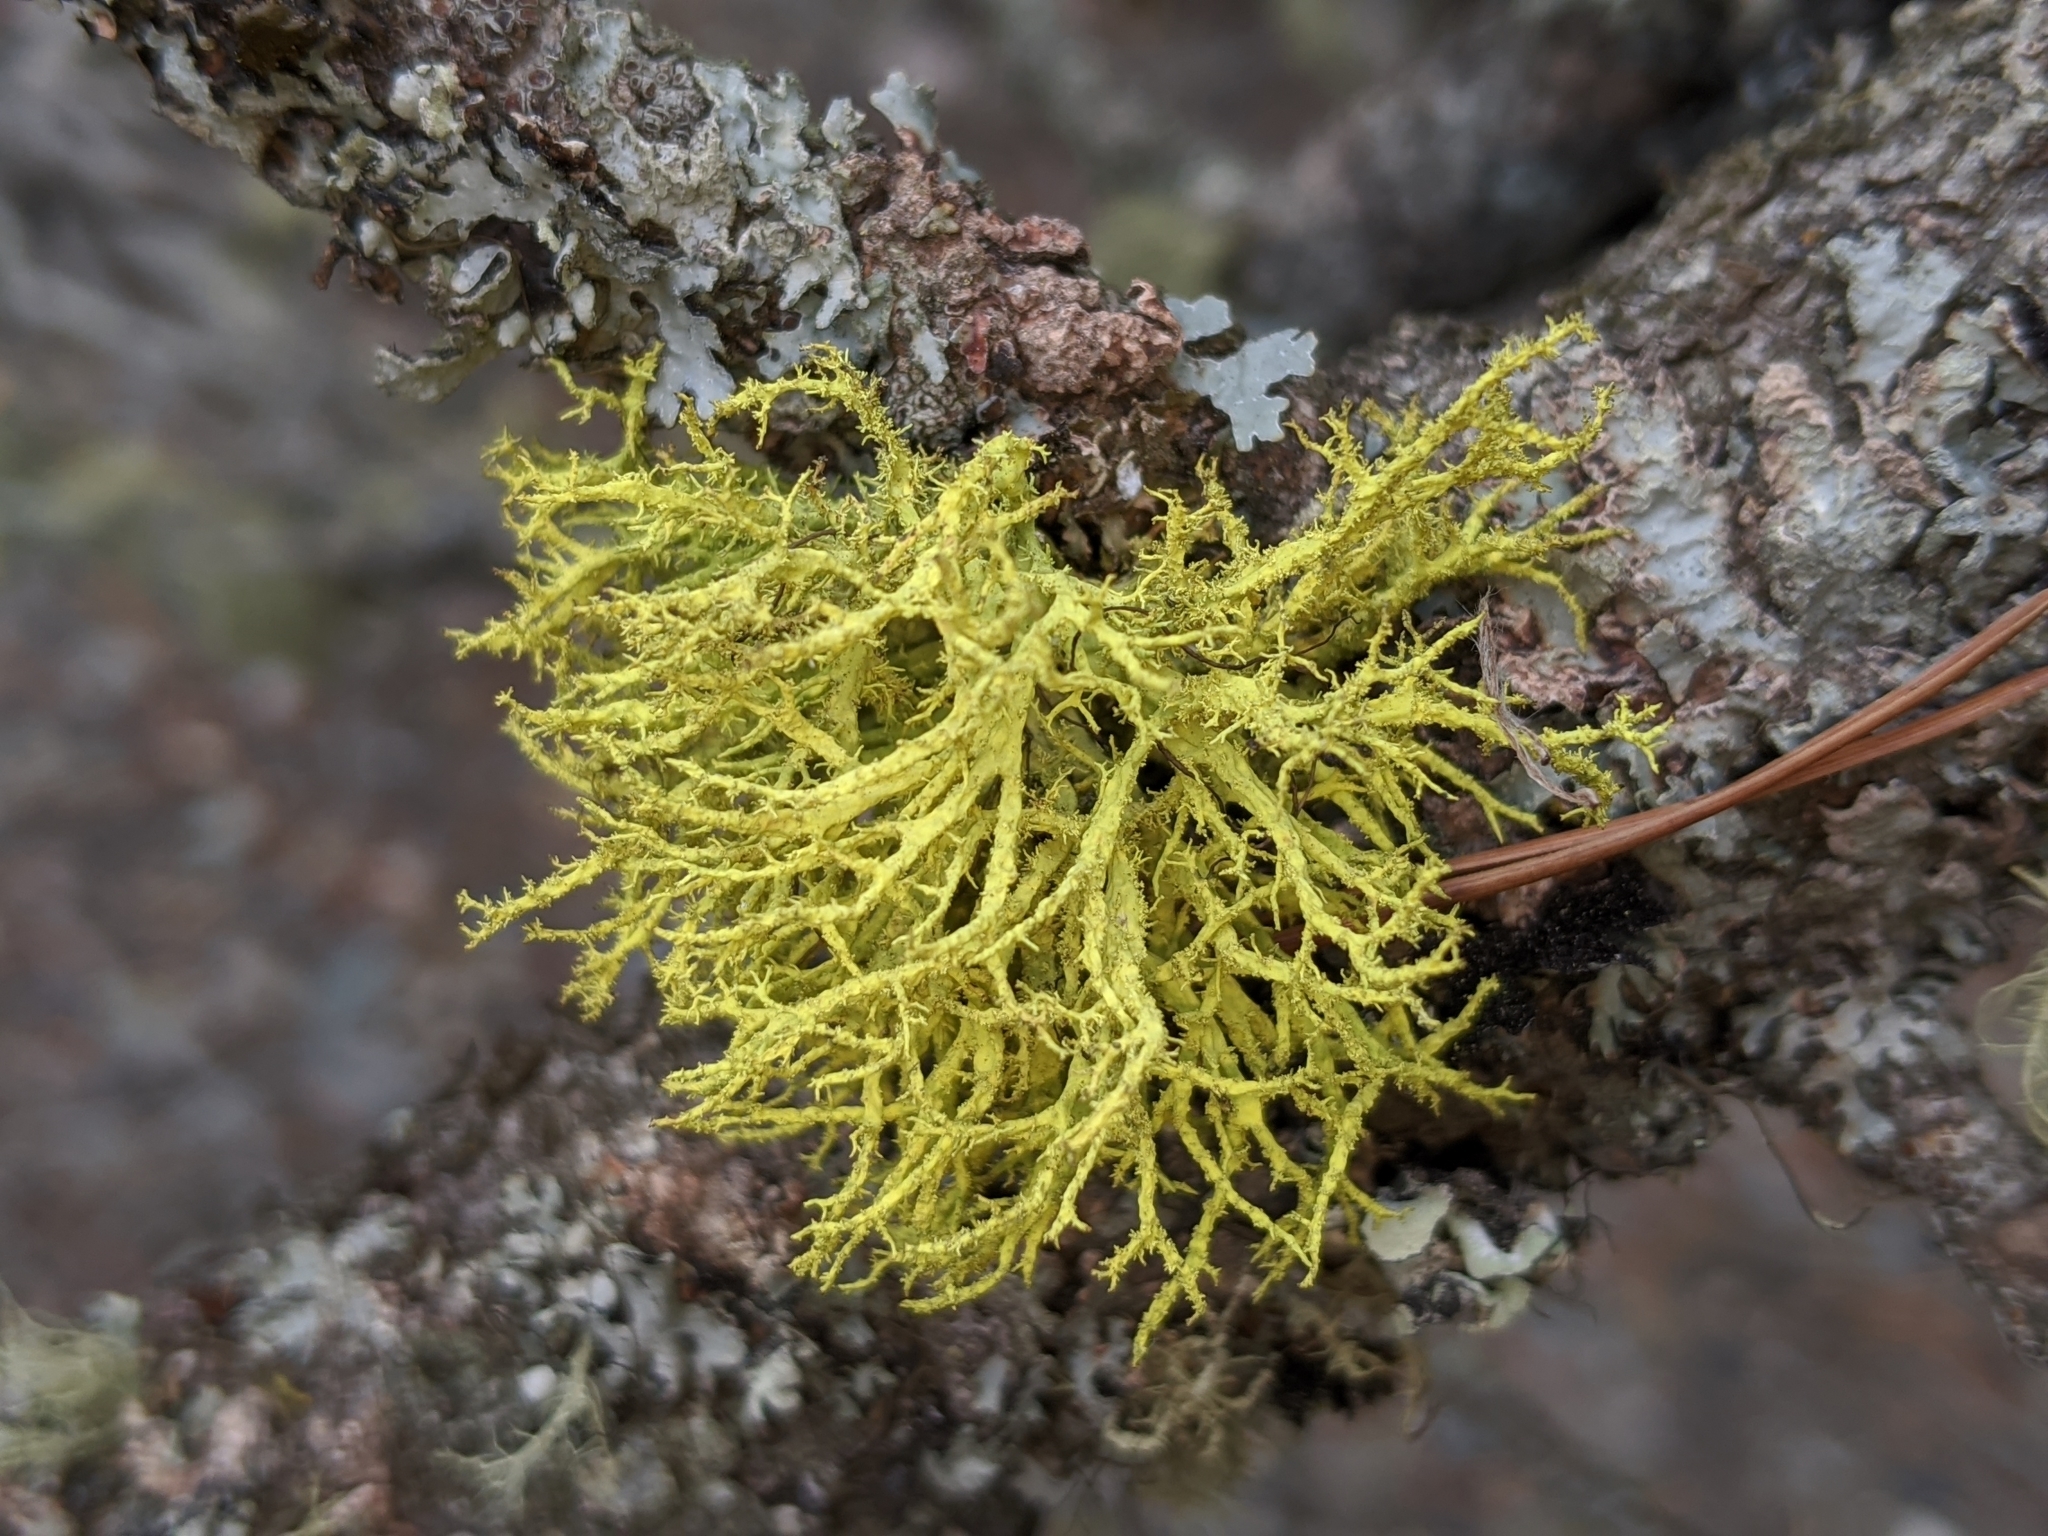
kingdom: Fungi
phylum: Ascomycota
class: Lecanoromycetes
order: Lecanorales
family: Parmeliaceae
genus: Letharia
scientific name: Letharia vulpina
